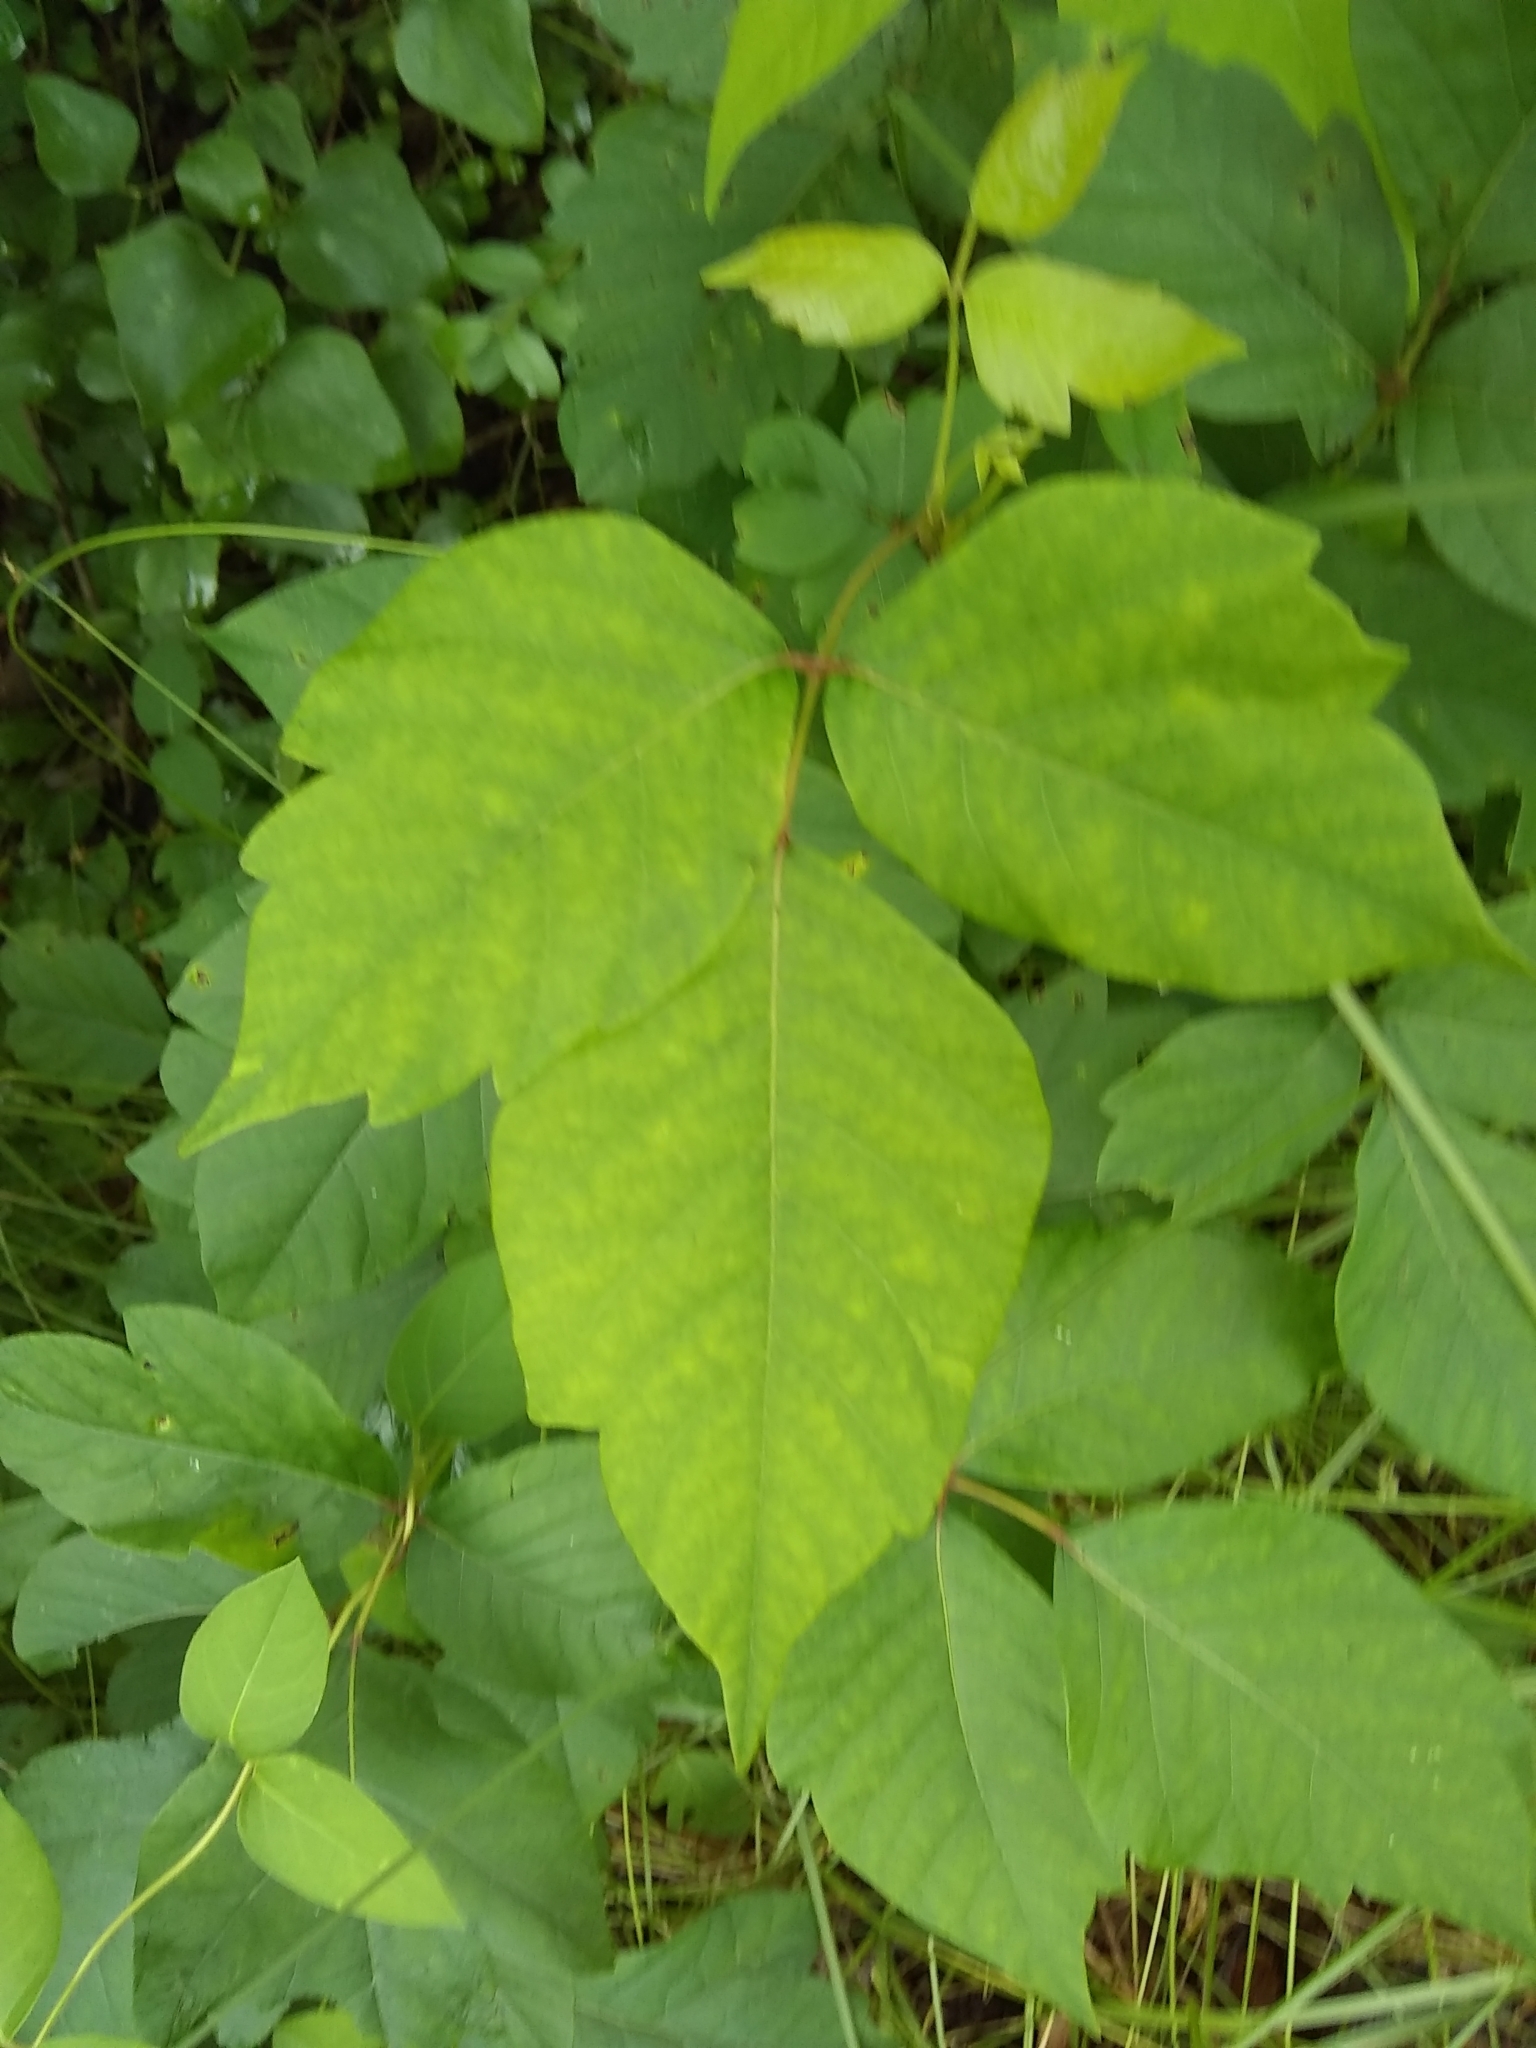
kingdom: Plantae
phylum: Tracheophyta
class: Magnoliopsida
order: Sapindales
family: Anacardiaceae
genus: Toxicodendron
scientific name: Toxicodendron radicans
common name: Poison ivy
